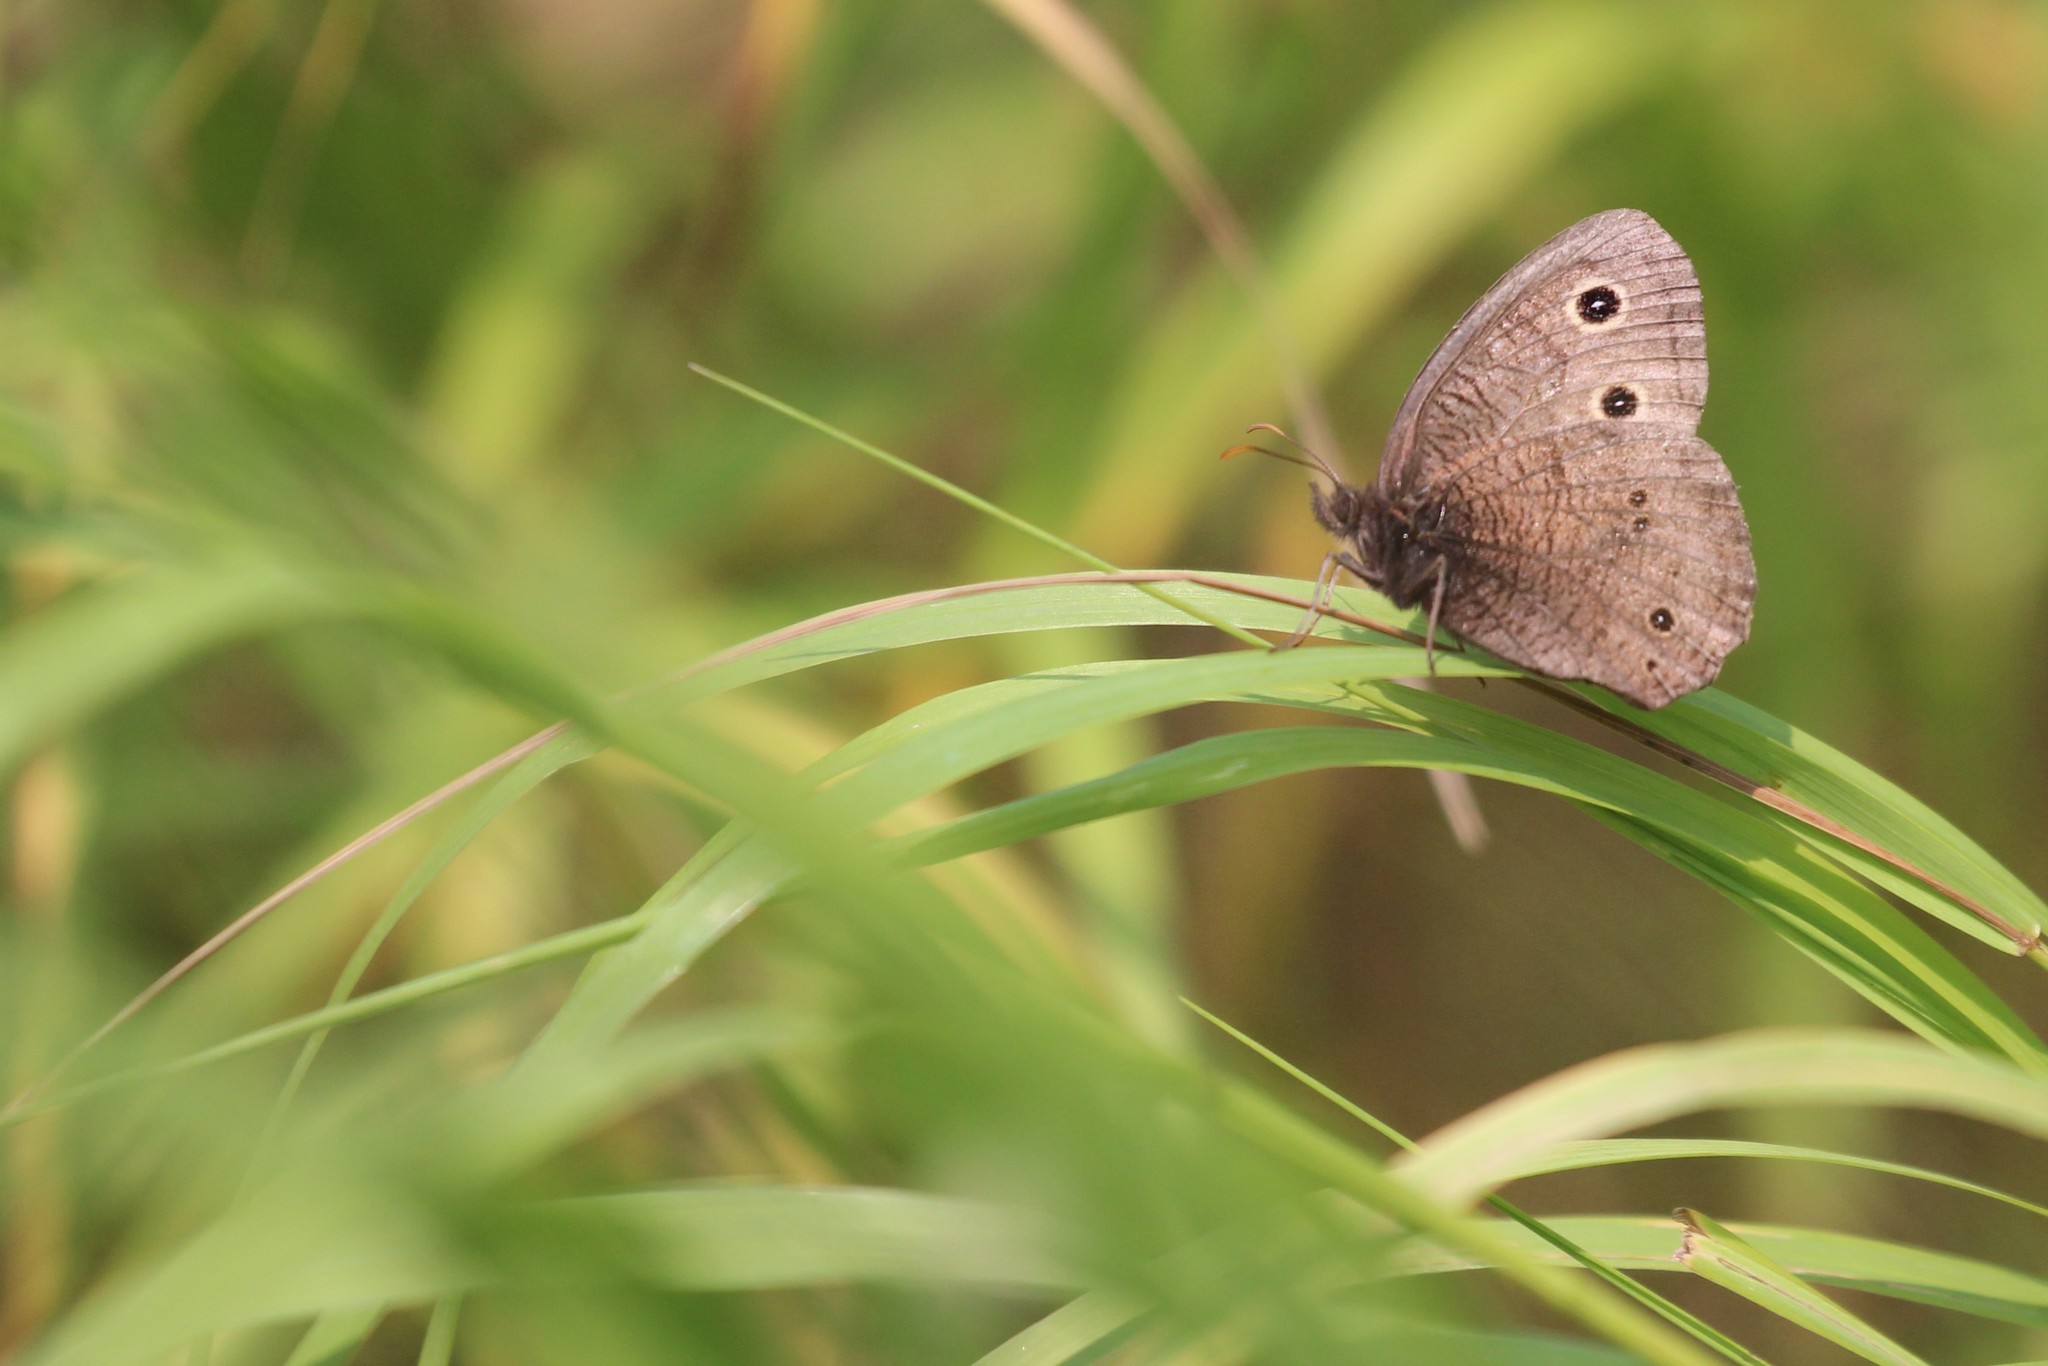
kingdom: Animalia
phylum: Arthropoda
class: Insecta
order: Lepidoptera
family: Nymphalidae
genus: Cercyonis
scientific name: Cercyonis pegala
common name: Common wood-nymph
